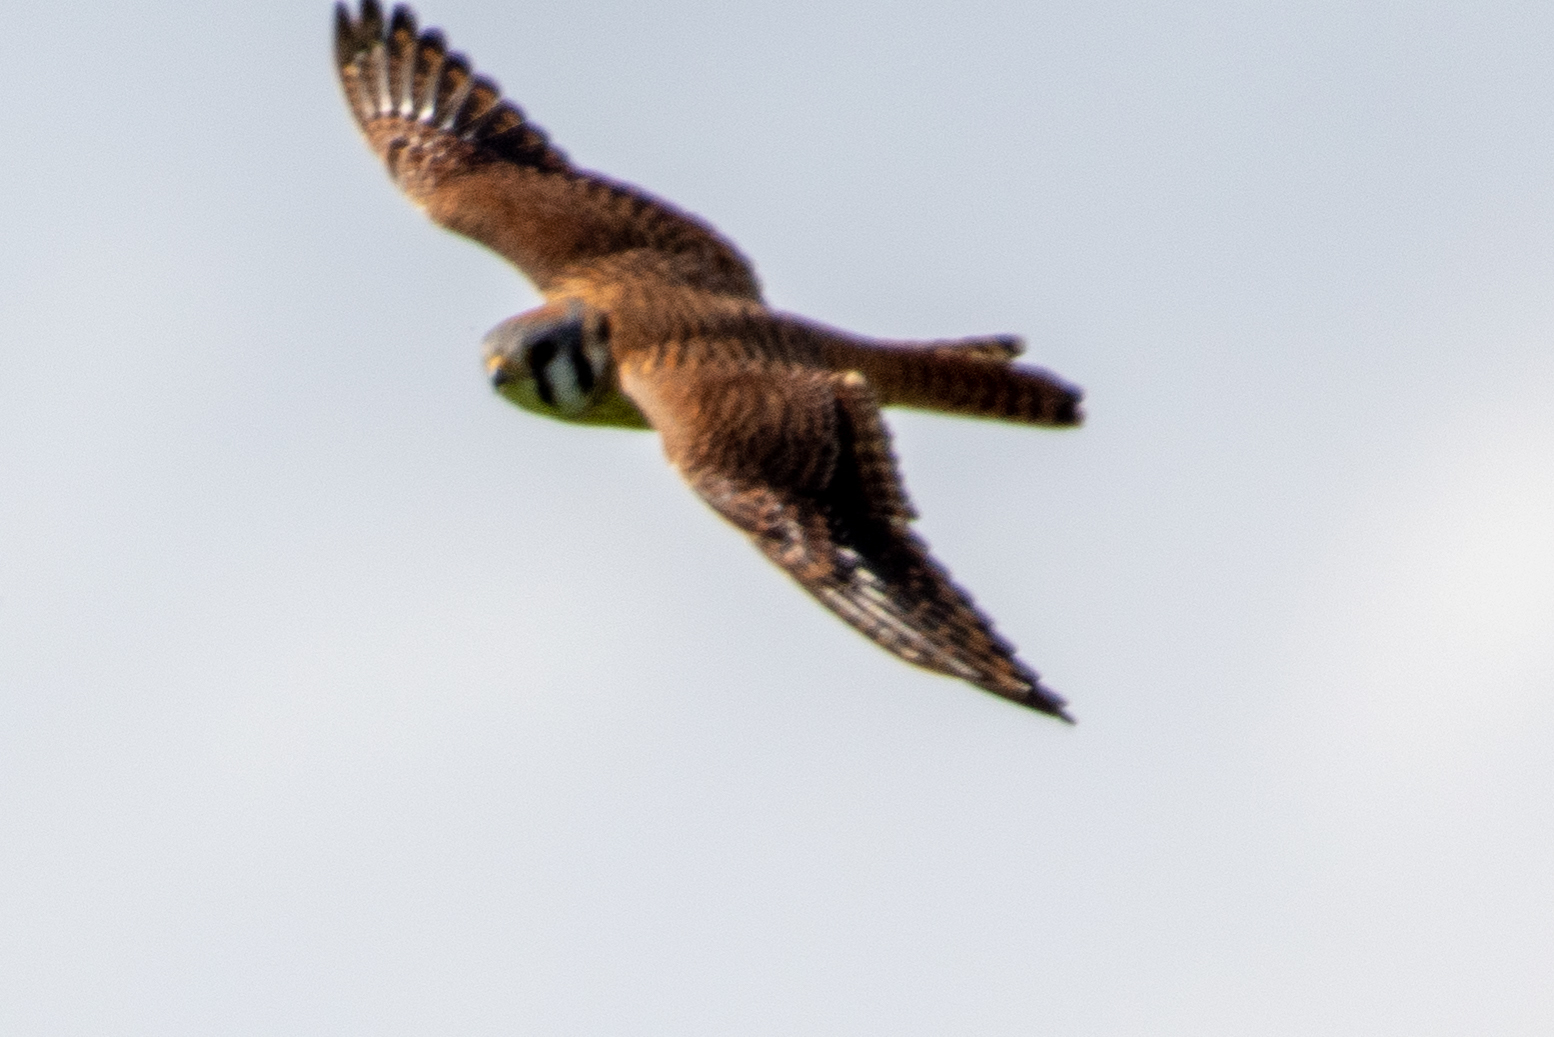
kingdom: Animalia
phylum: Chordata
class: Aves
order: Falconiformes
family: Falconidae
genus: Falco
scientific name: Falco sparverius
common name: American kestrel
